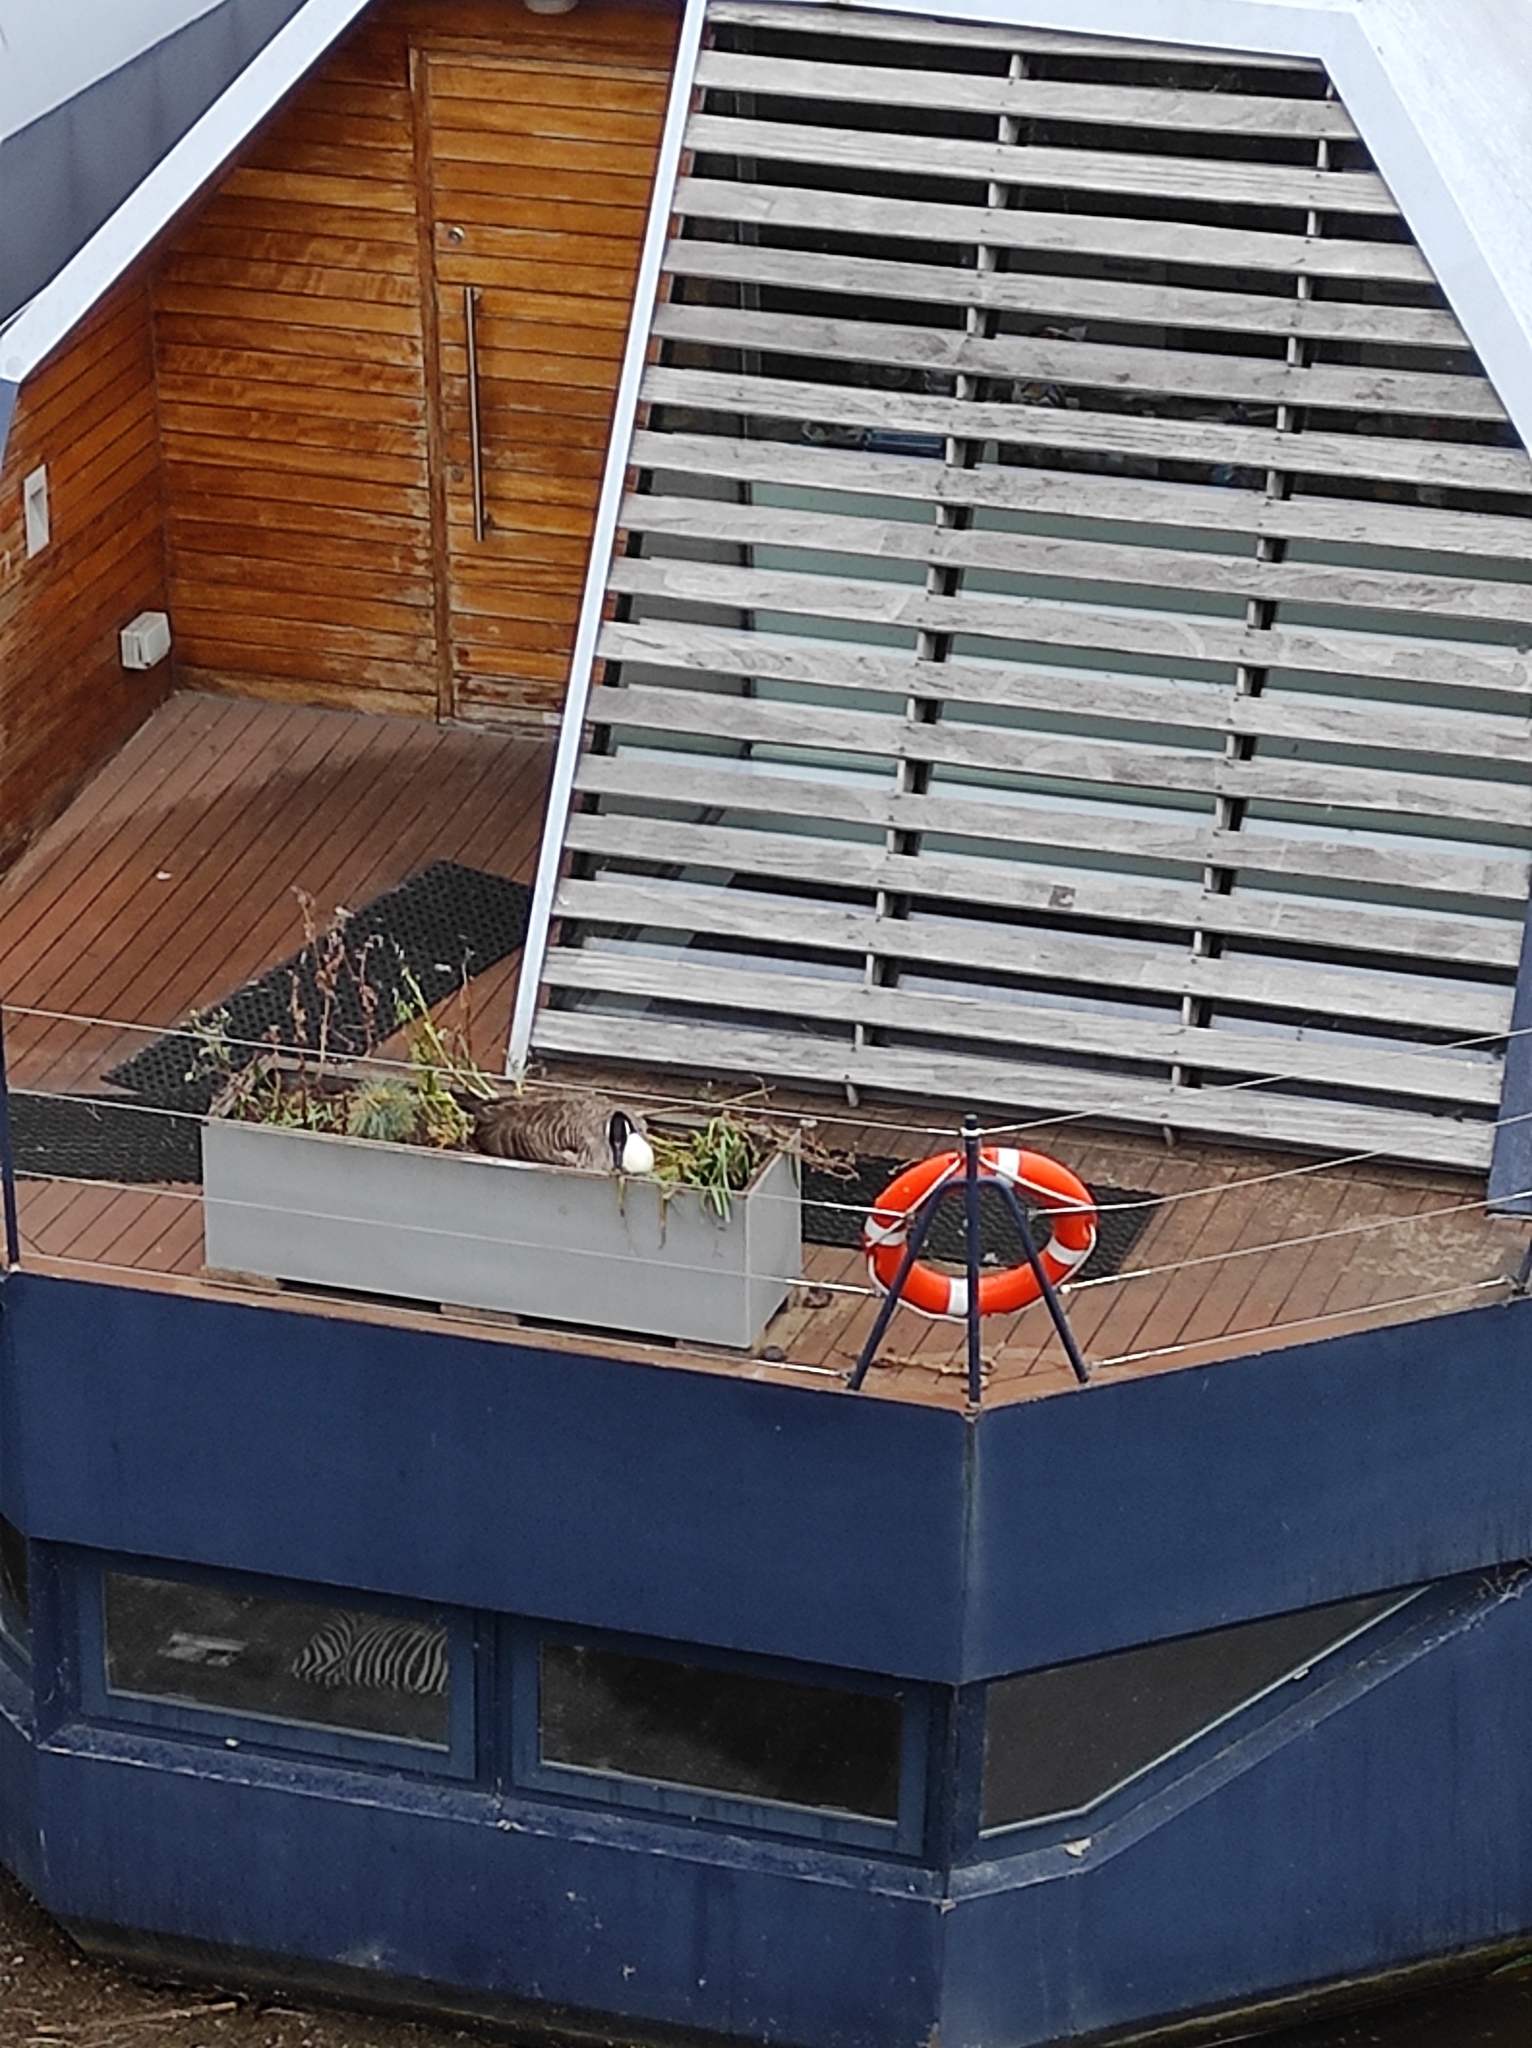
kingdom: Animalia
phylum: Chordata
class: Aves
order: Anseriformes
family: Anatidae
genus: Branta
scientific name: Branta canadensis
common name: Canada goose
